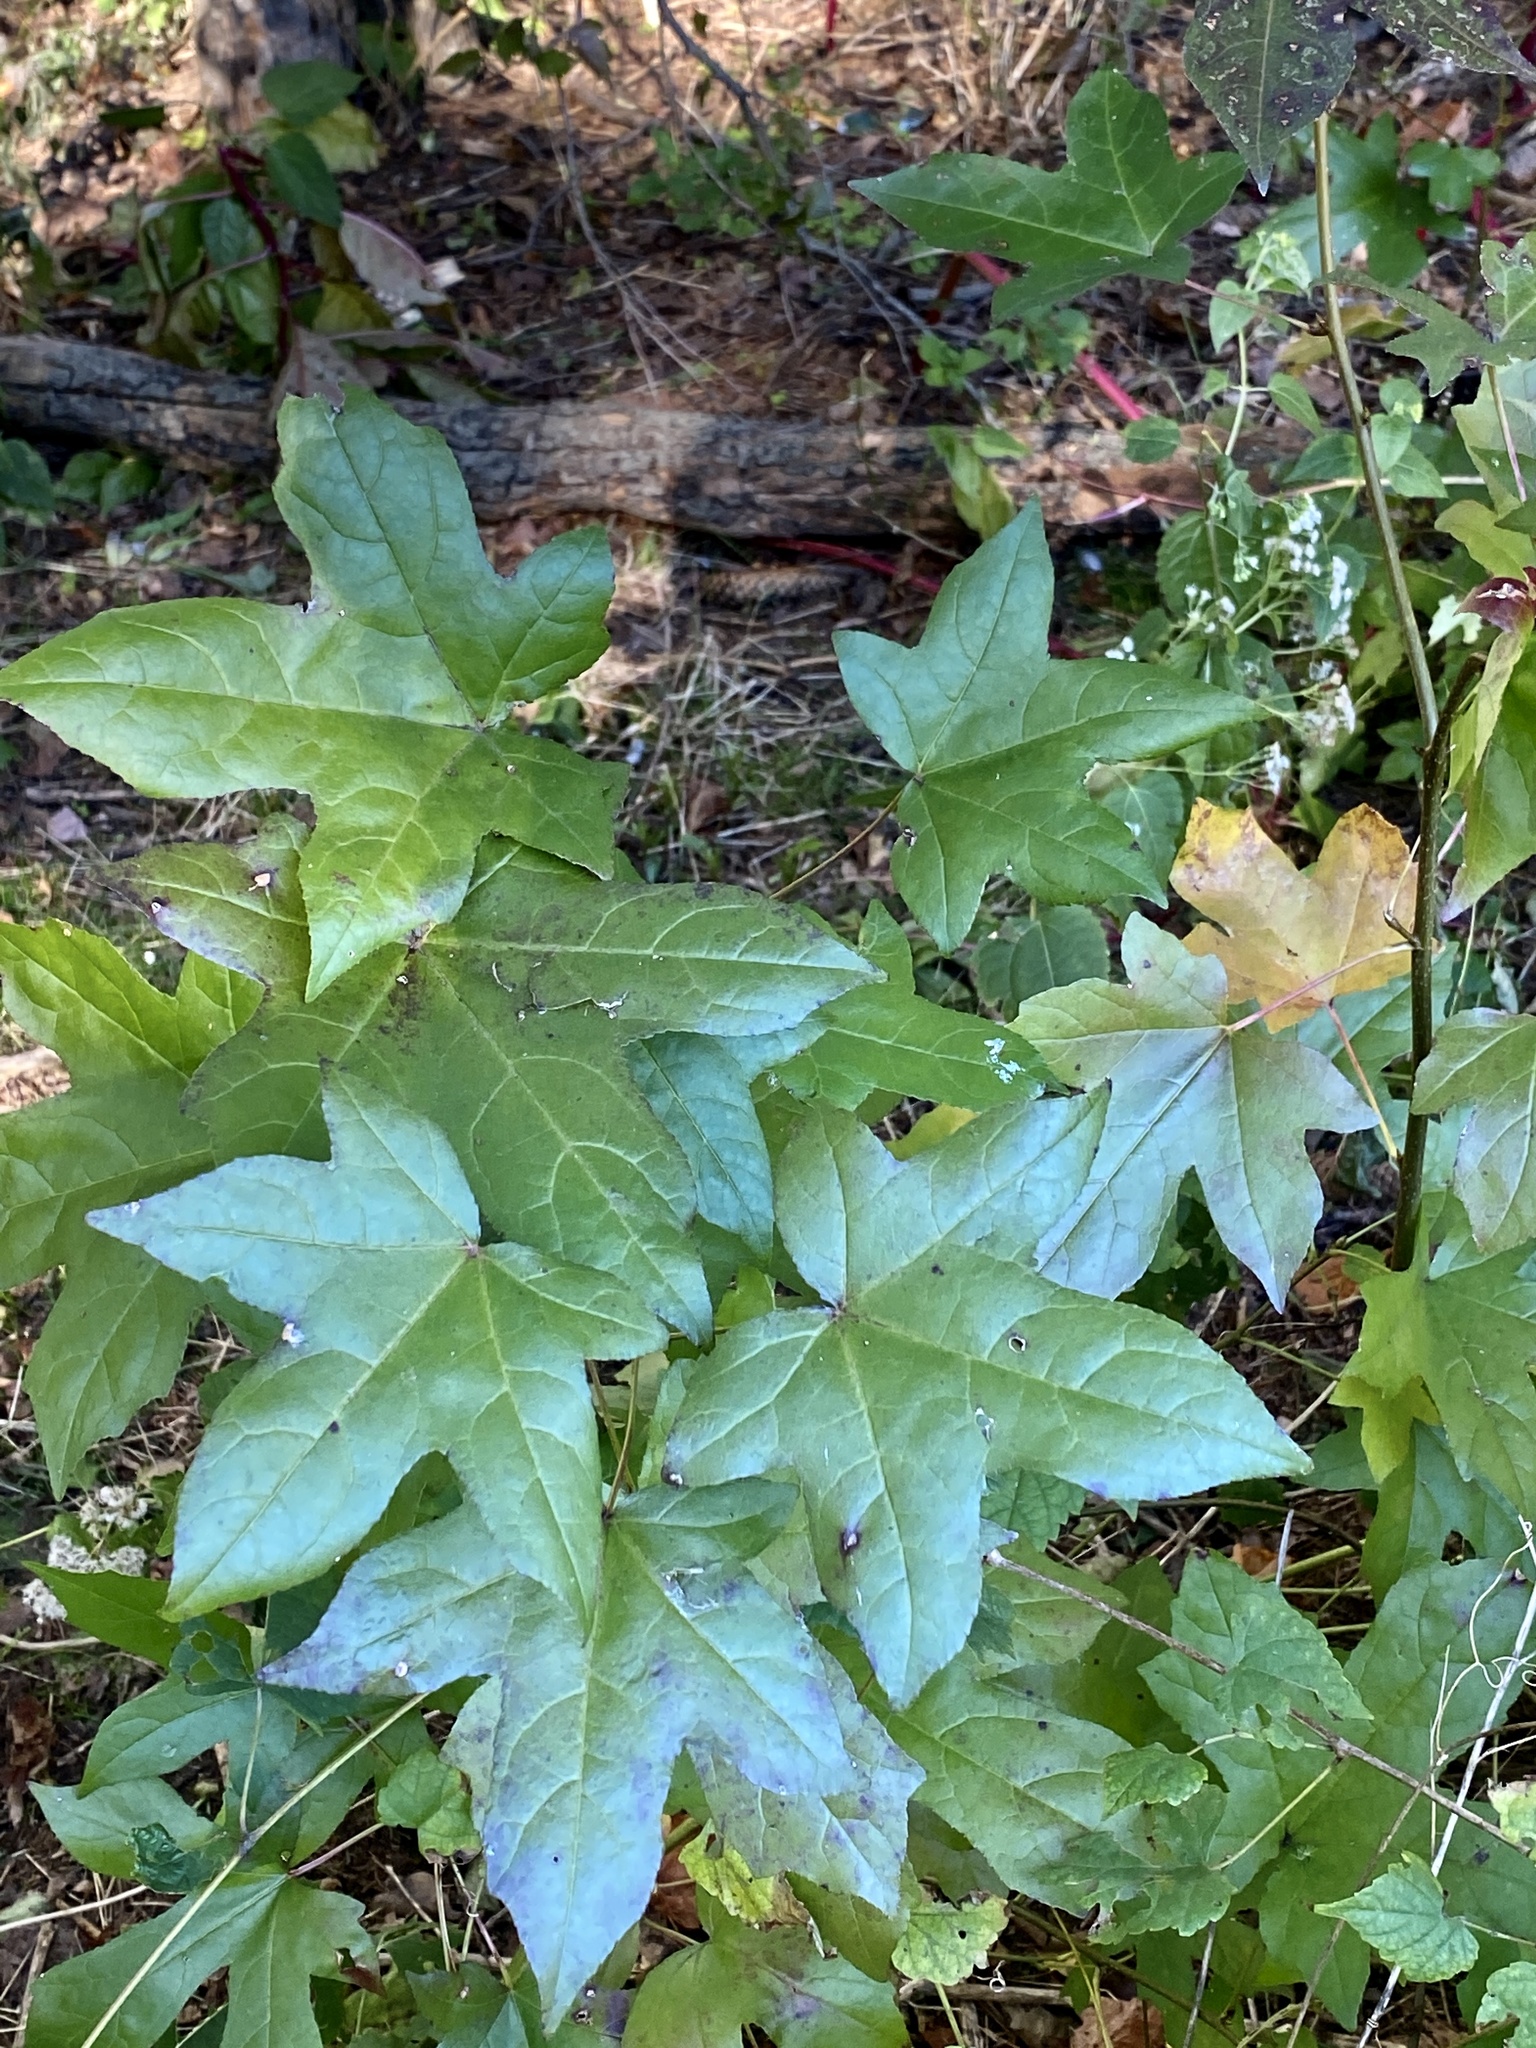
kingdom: Plantae
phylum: Tracheophyta
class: Magnoliopsida
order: Saxifragales
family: Altingiaceae
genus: Liquidambar
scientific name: Liquidambar styraciflua
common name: Sweet gum
